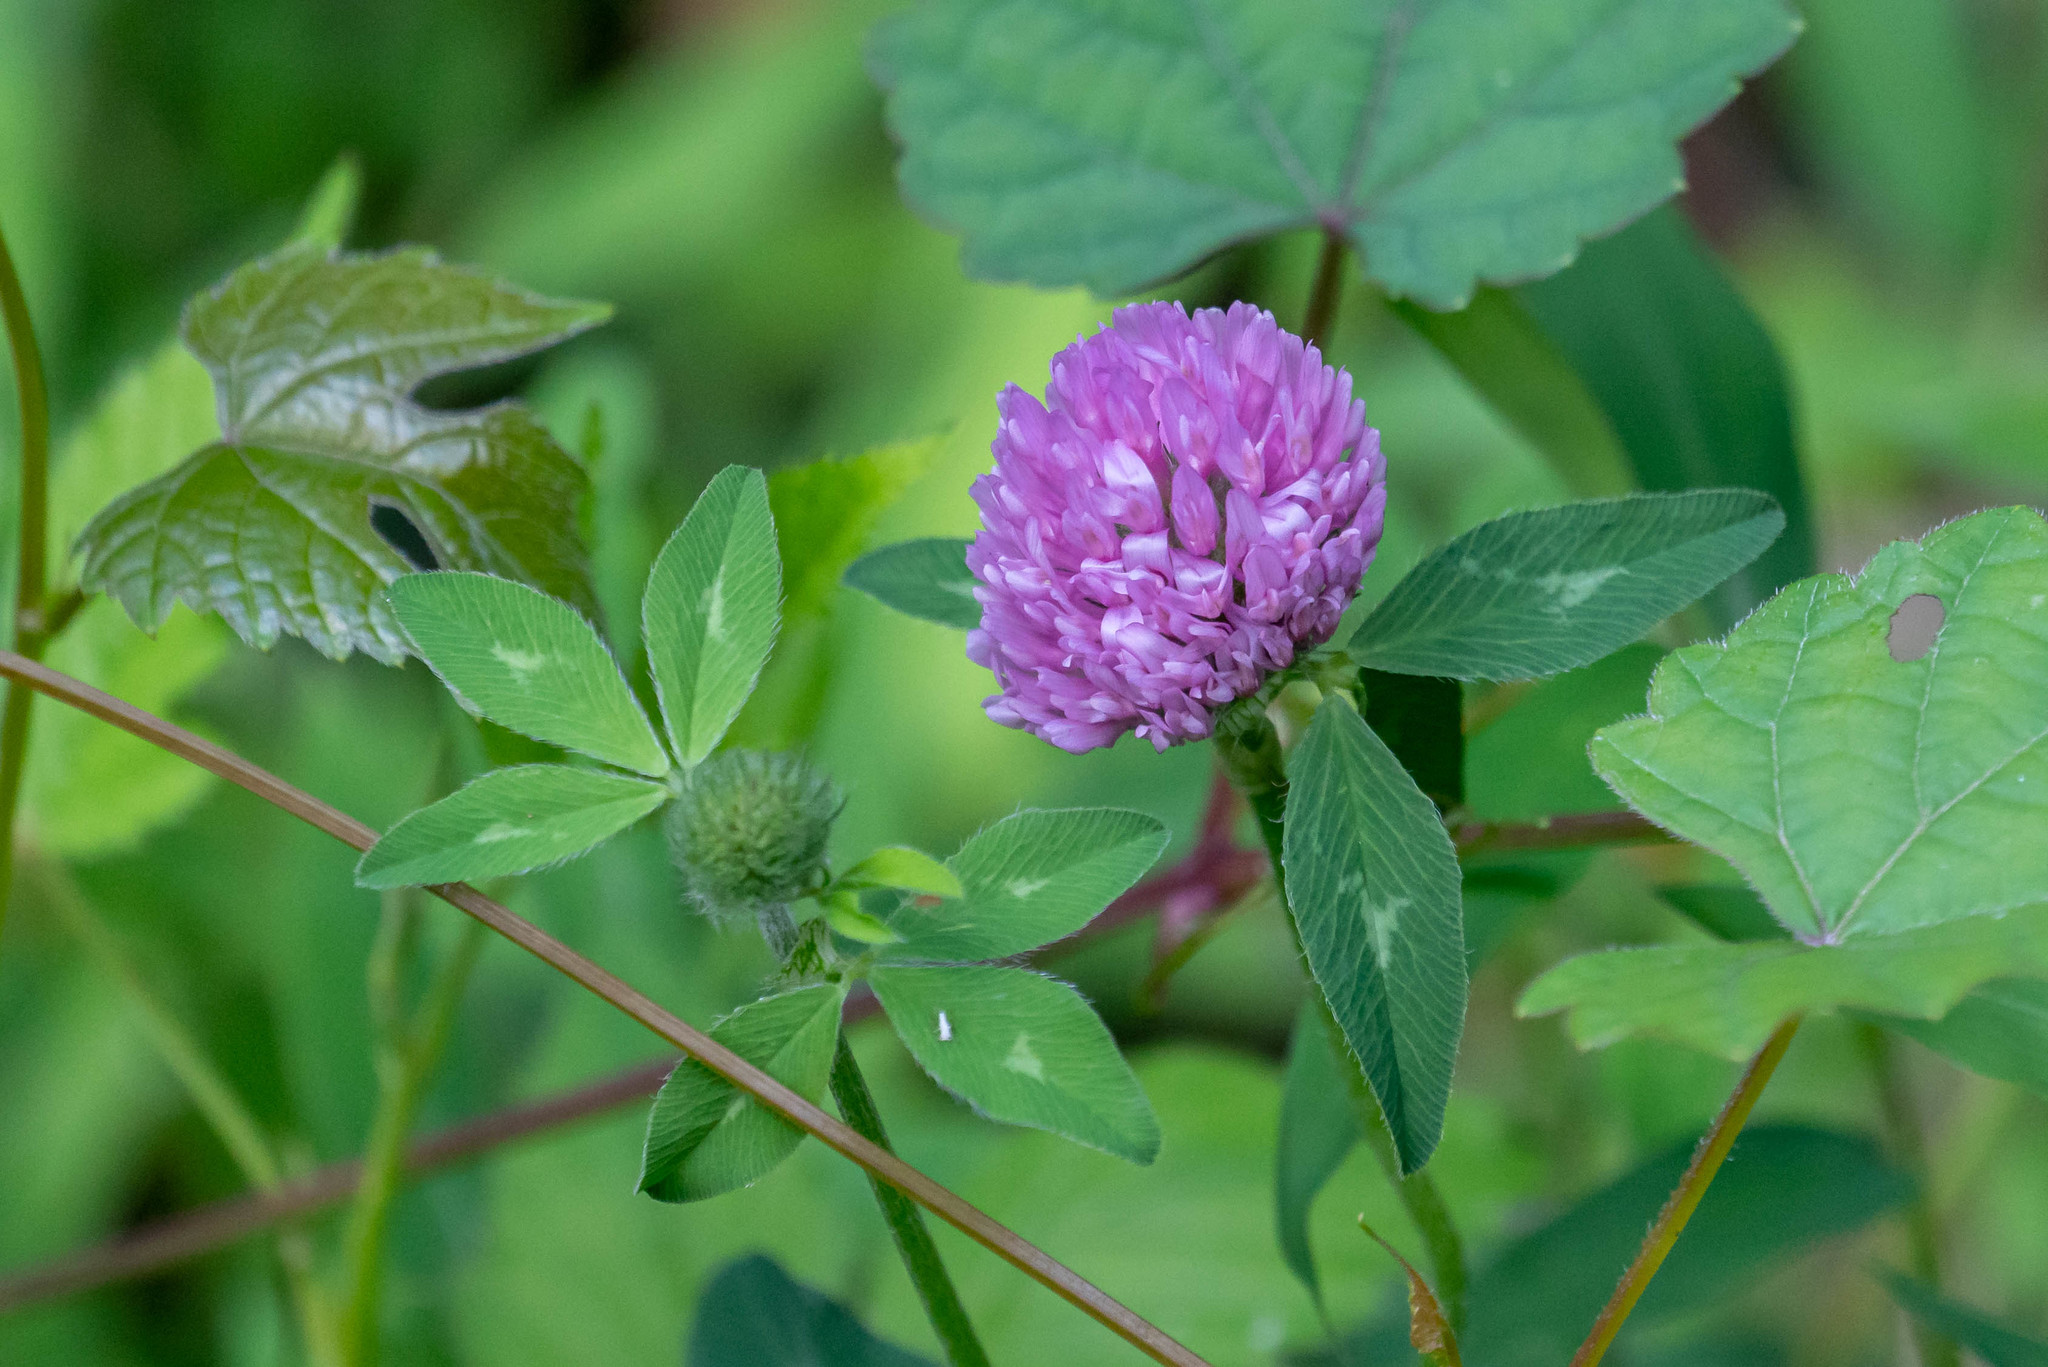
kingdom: Plantae
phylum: Tracheophyta
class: Magnoliopsida
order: Fabales
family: Fabaceae
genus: Trifolium
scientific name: Trifolium pratense
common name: Red clover
